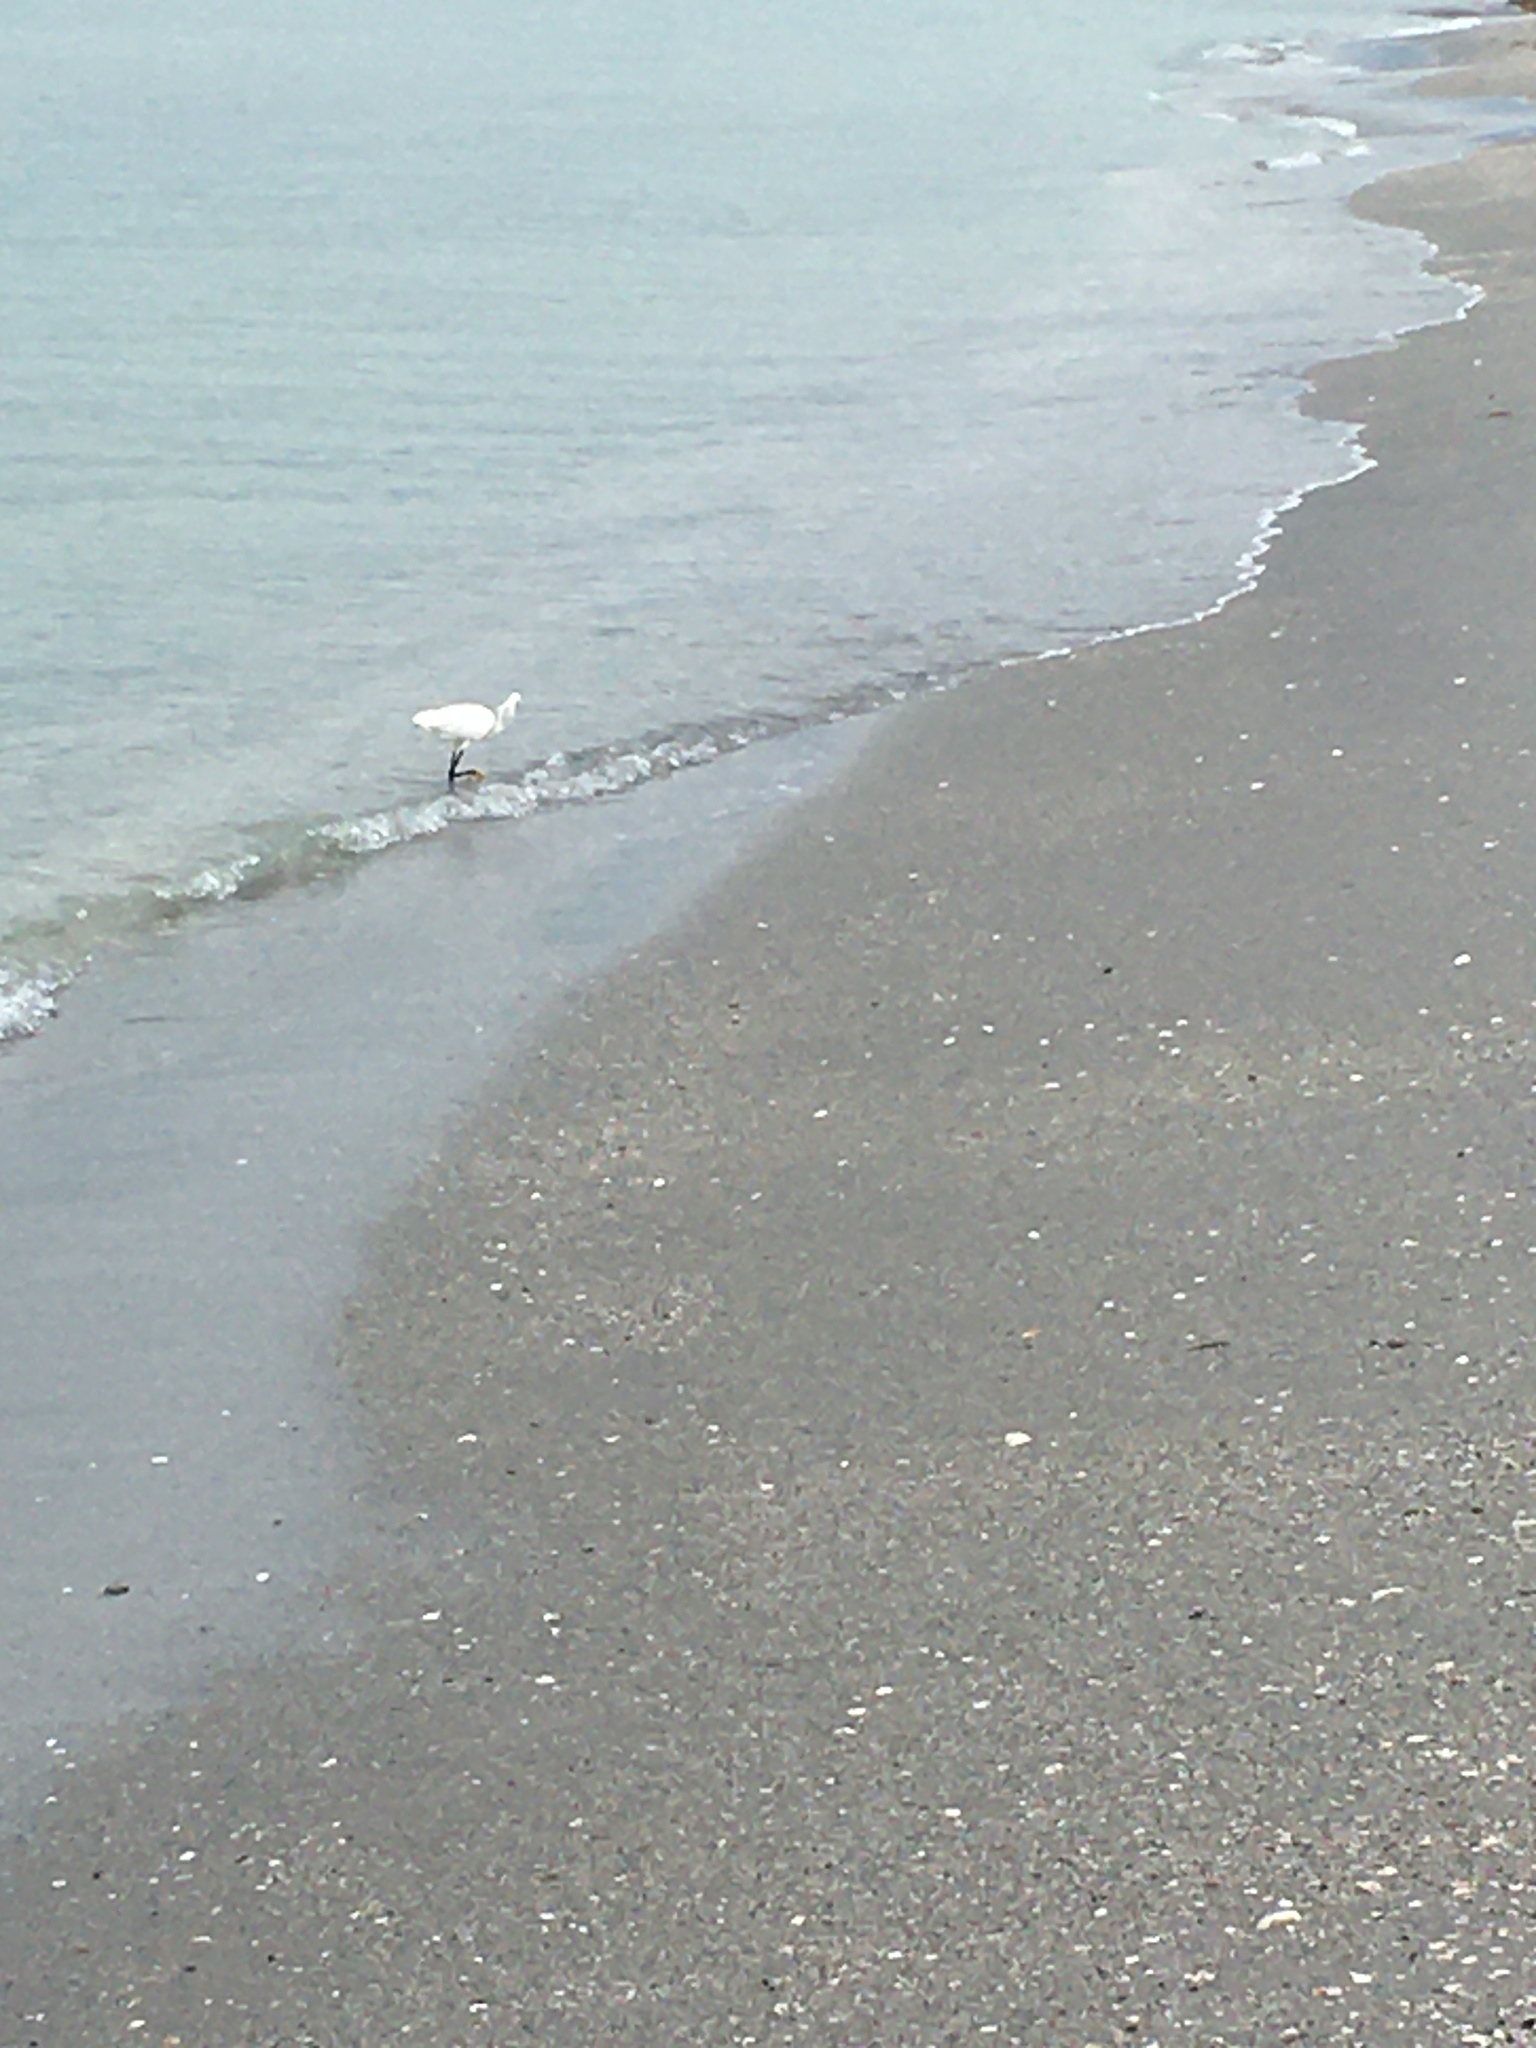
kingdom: Animalia
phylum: Chordata
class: Aves
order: Pelecaniformes
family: Ardeidae
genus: Egretta
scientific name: Egretta thula
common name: Snowy egret
